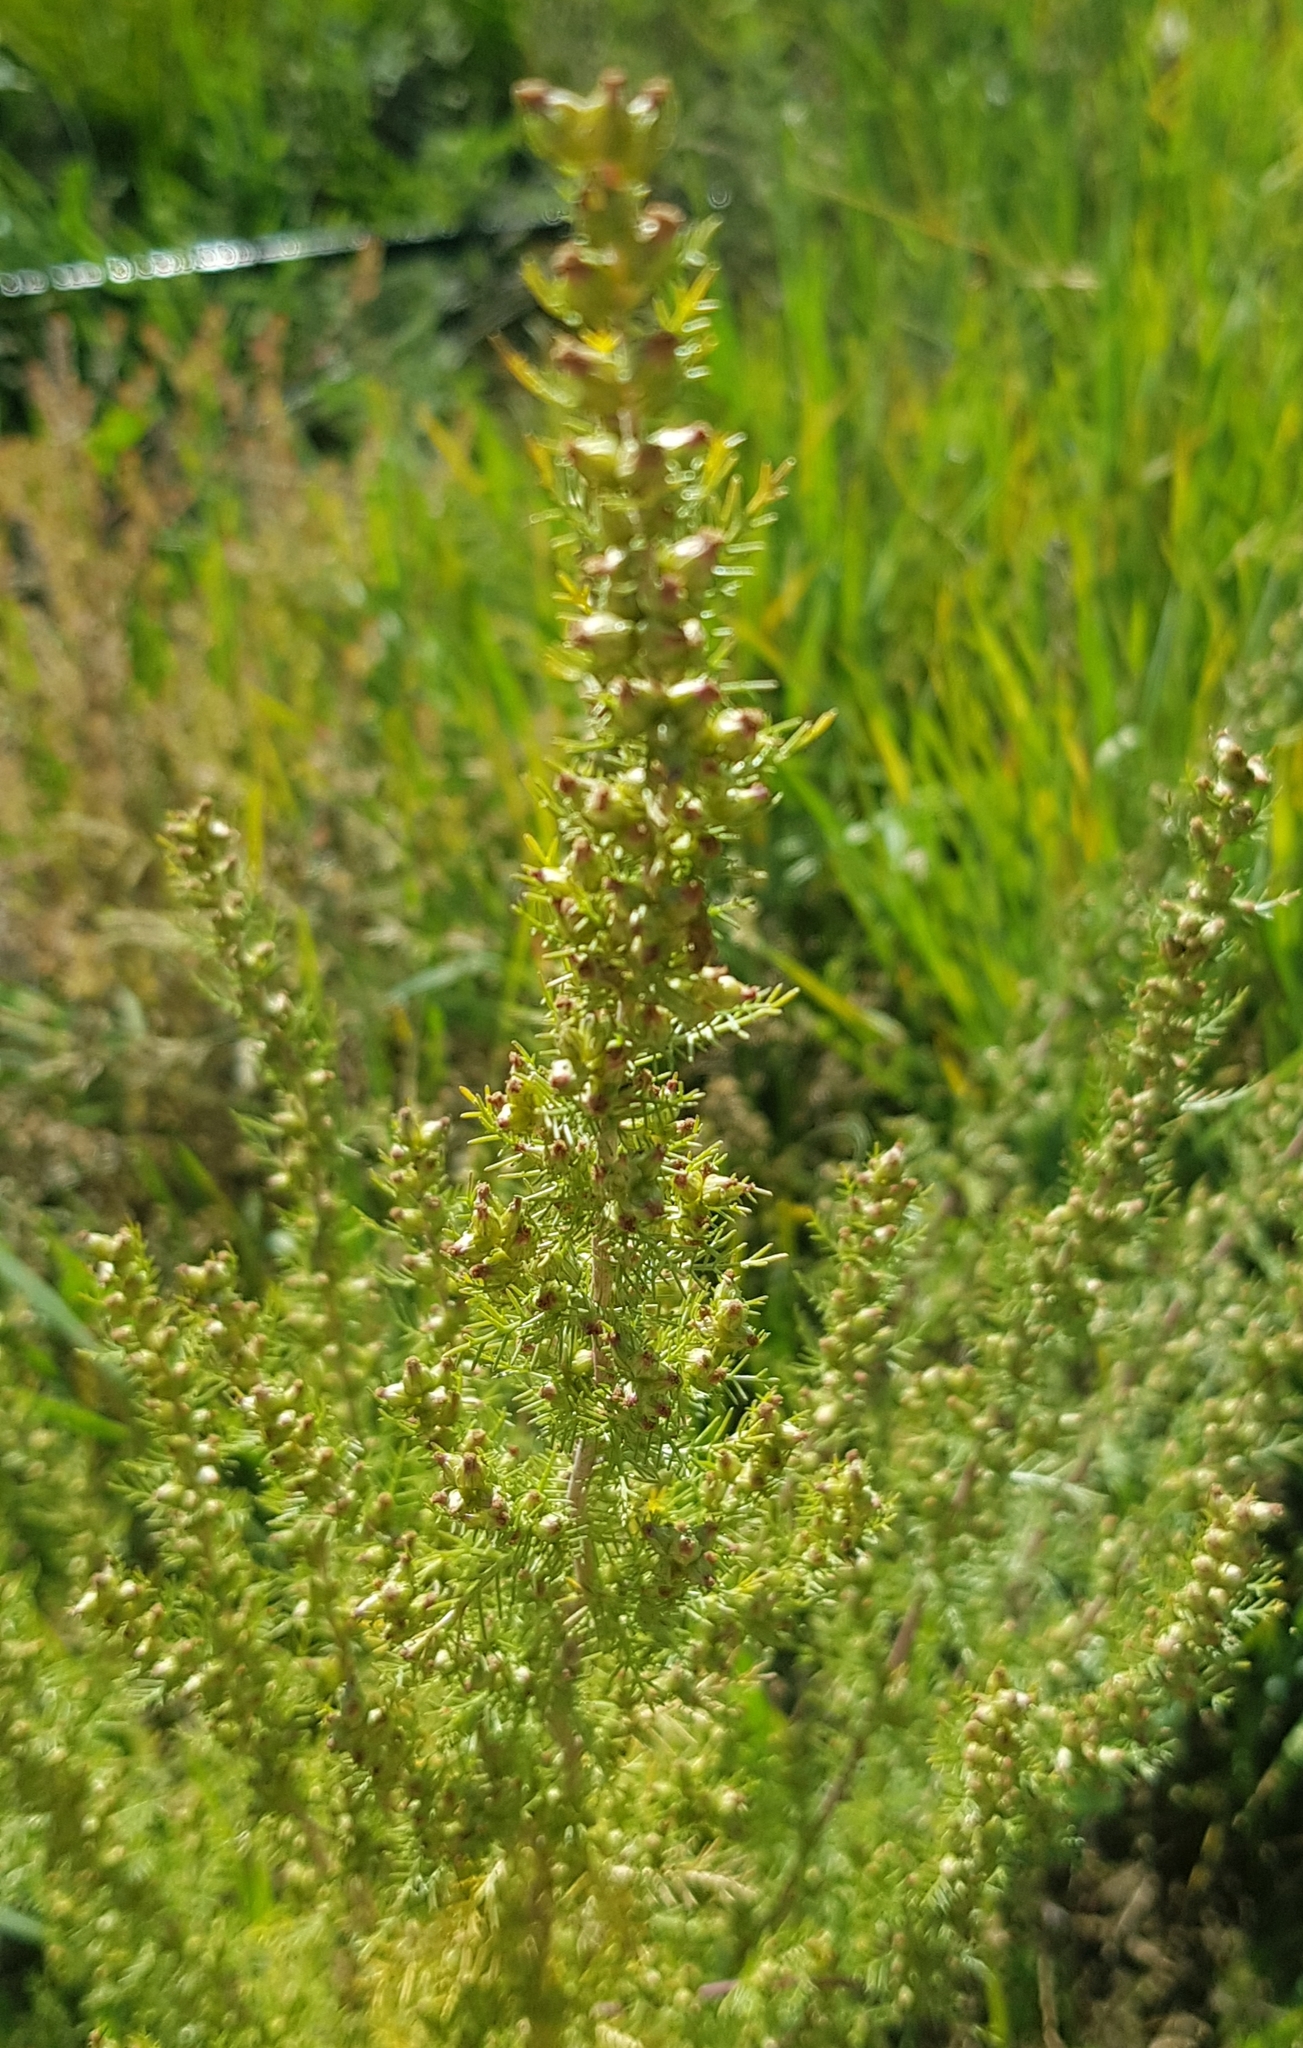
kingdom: Plantae
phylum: Tracheophyta
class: Magnoliopsida
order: Asterales
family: Asteraceae
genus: Neopallasia
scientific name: Neopallasia pectinata
